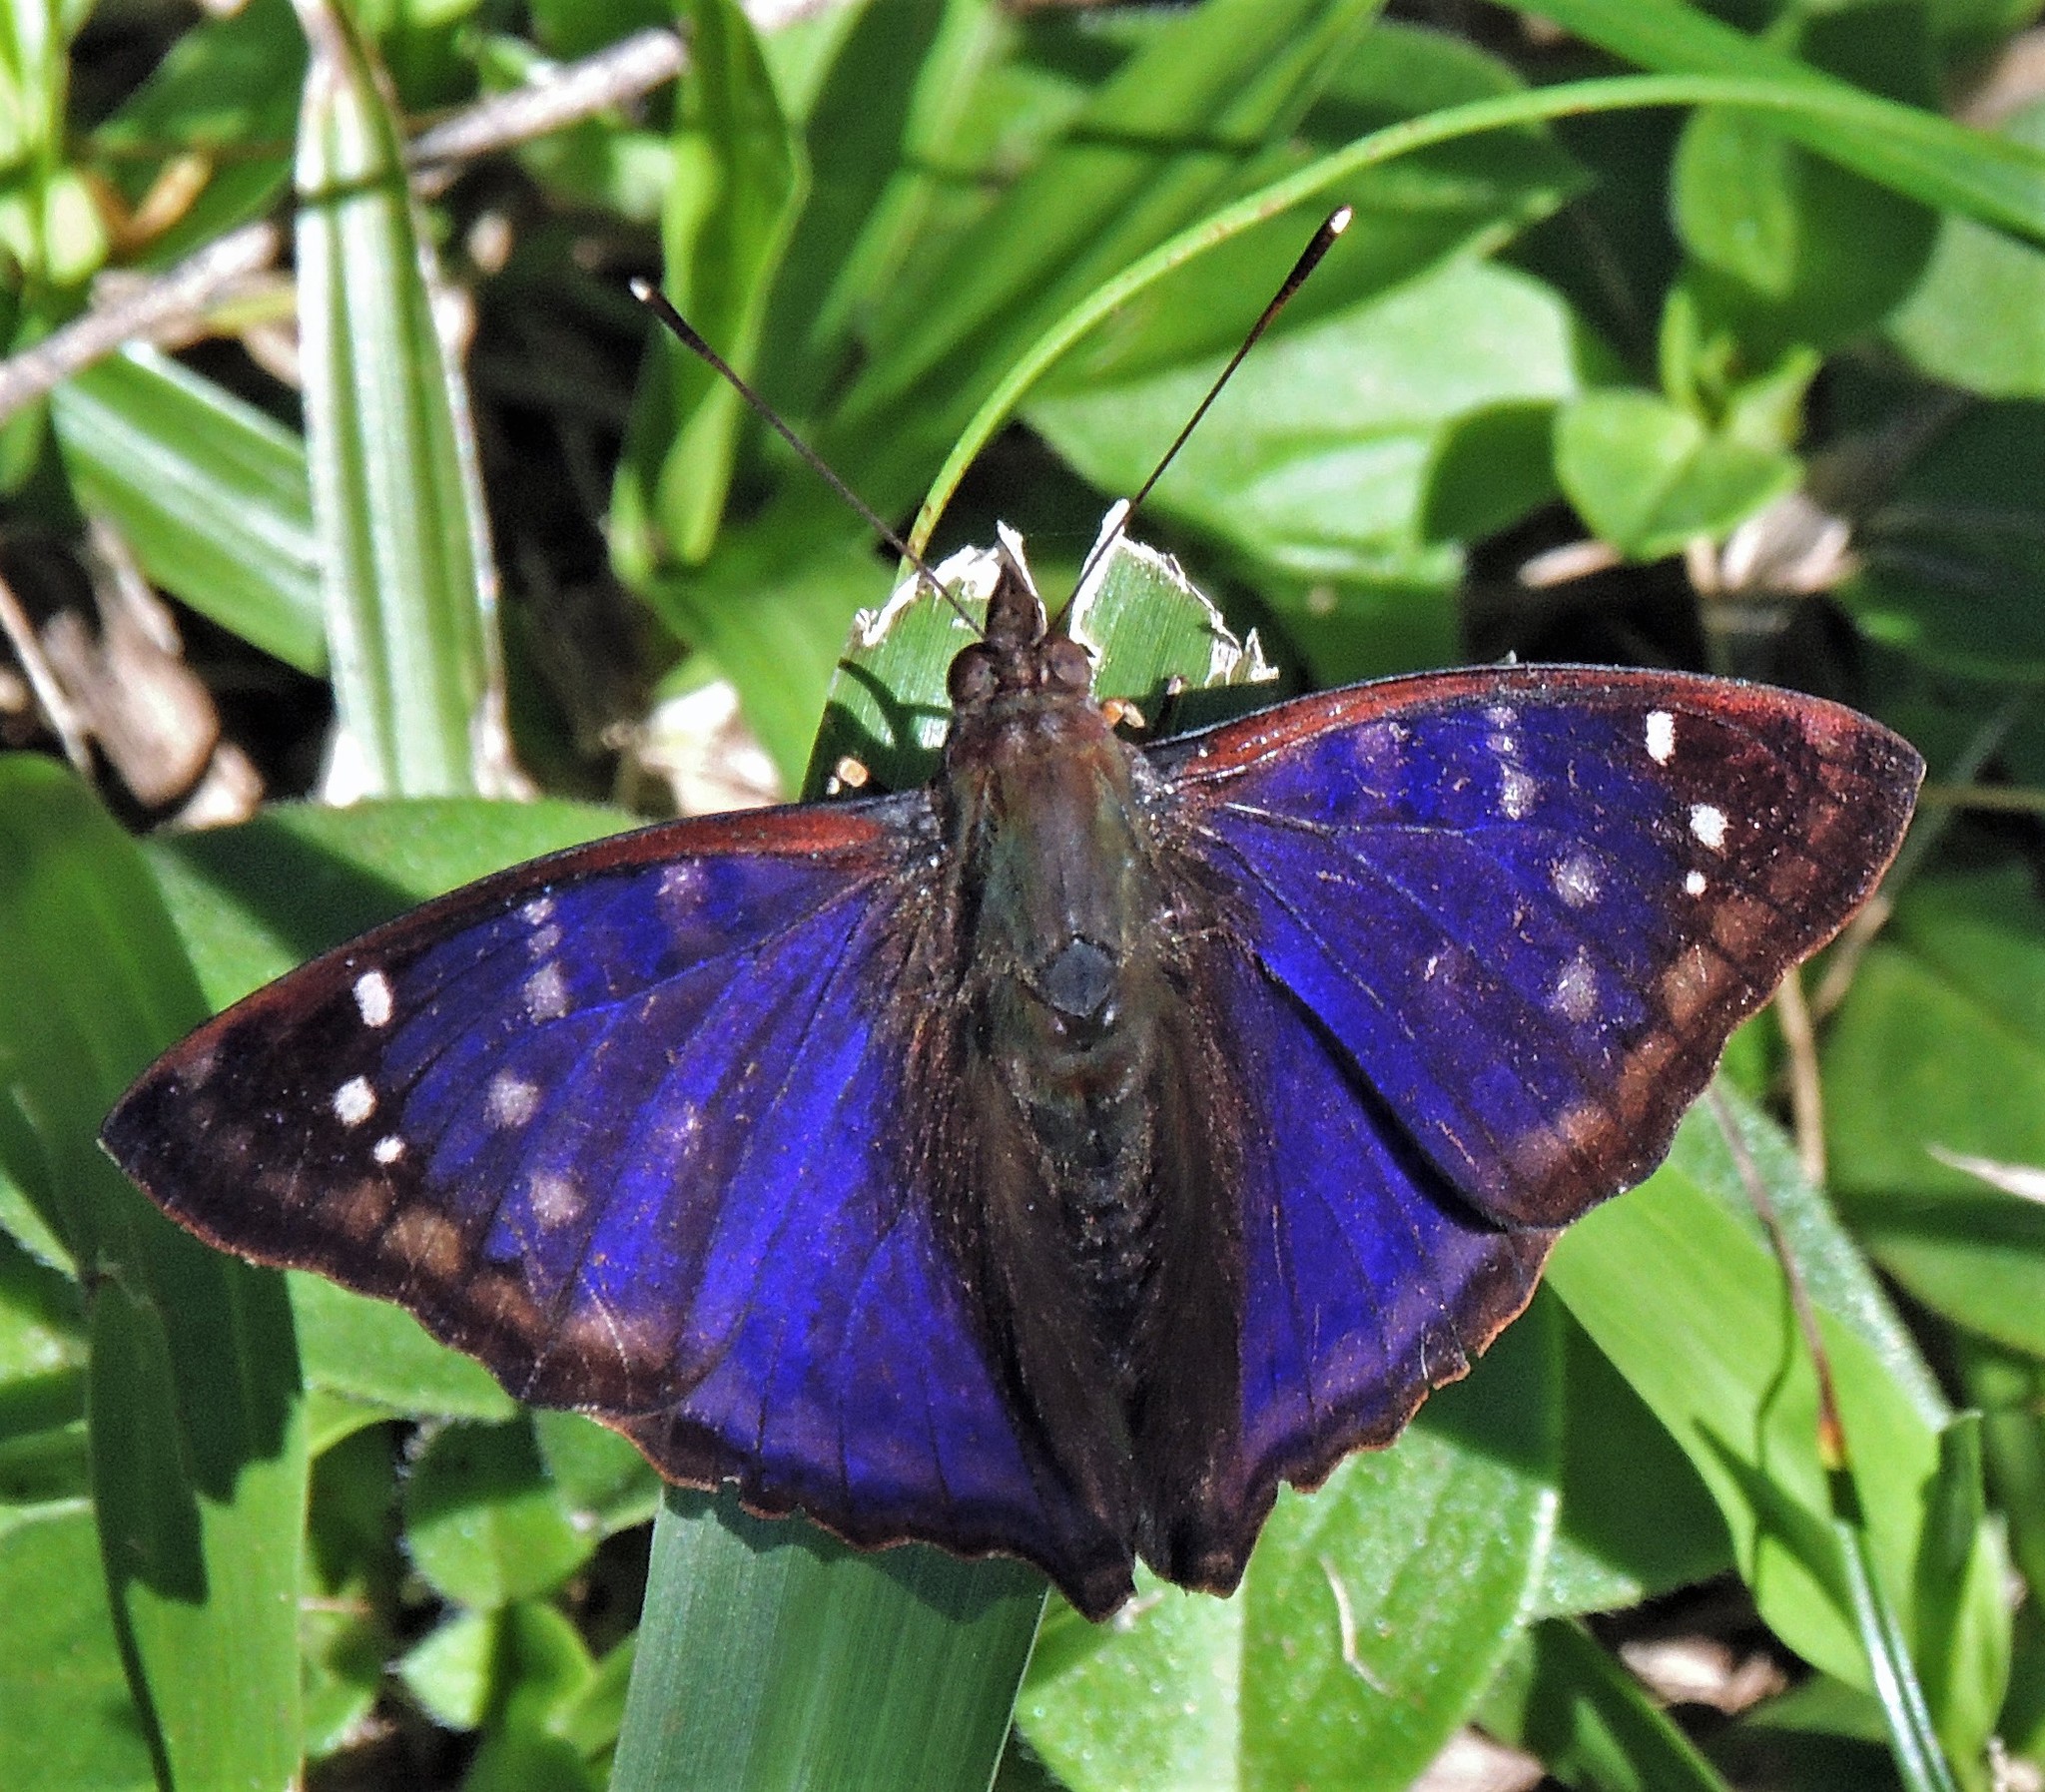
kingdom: Animalia
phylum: Arthropoda
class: Insecta
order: Lepidoptera
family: Nymphalidae
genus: Doxocopa
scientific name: Doxocopa kallina
